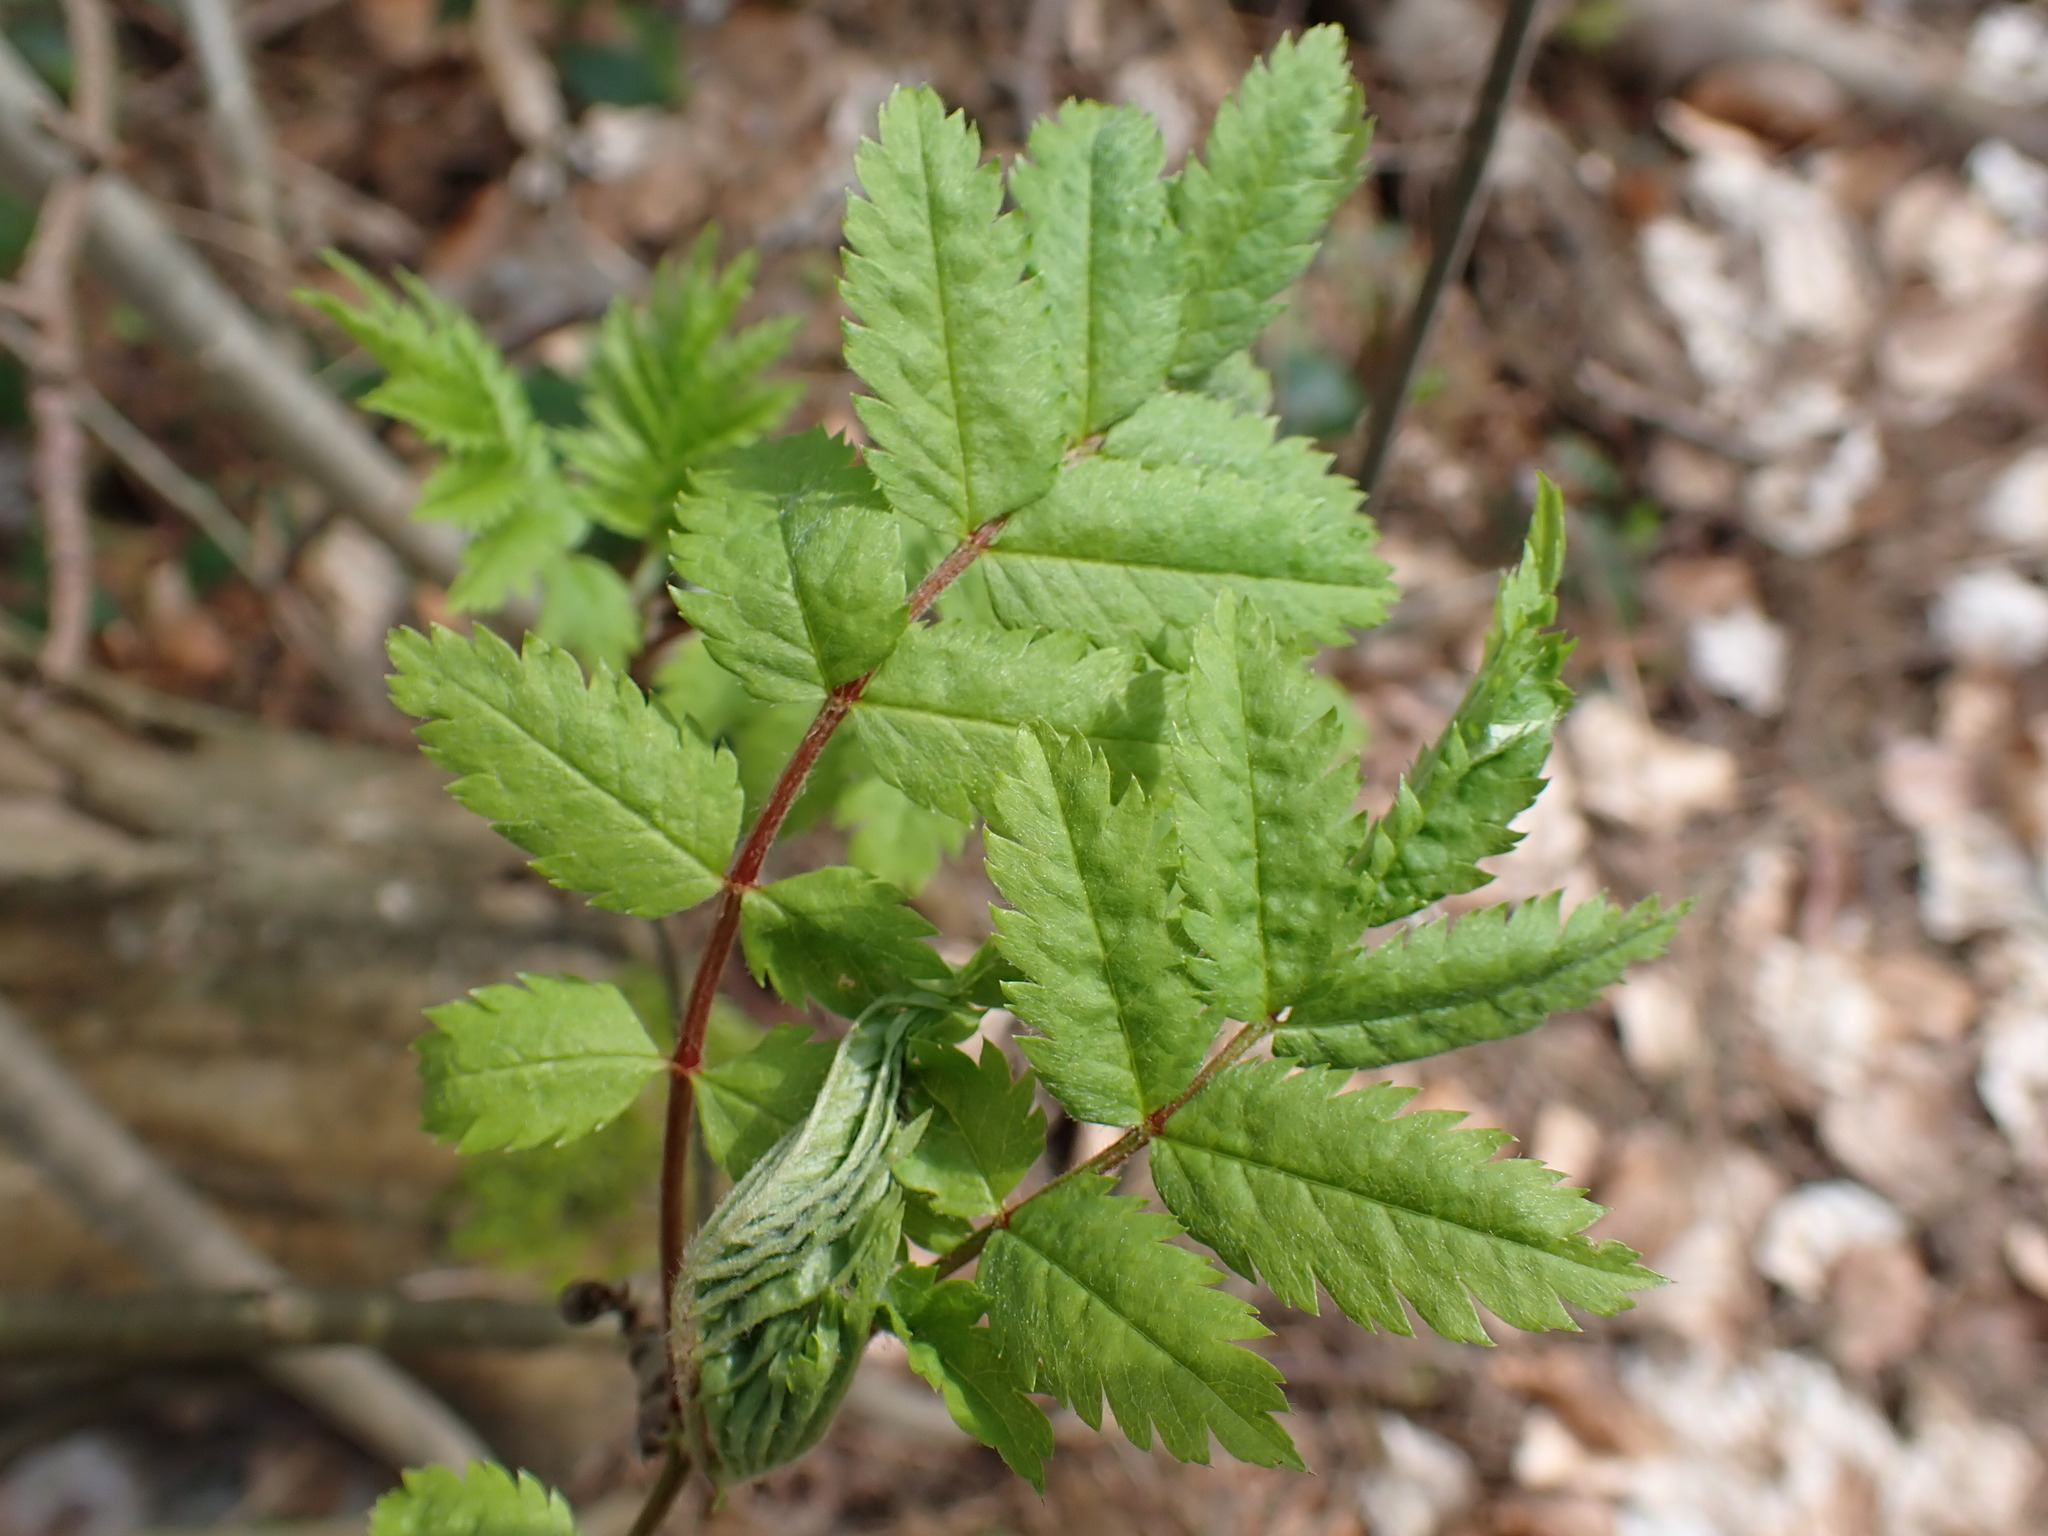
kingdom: Plantae
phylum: Tracheophyta
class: Magnoliopsida
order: Rosales
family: Rosaceae
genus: Sorbus
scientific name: Sorbus aucuparia
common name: Rowan
